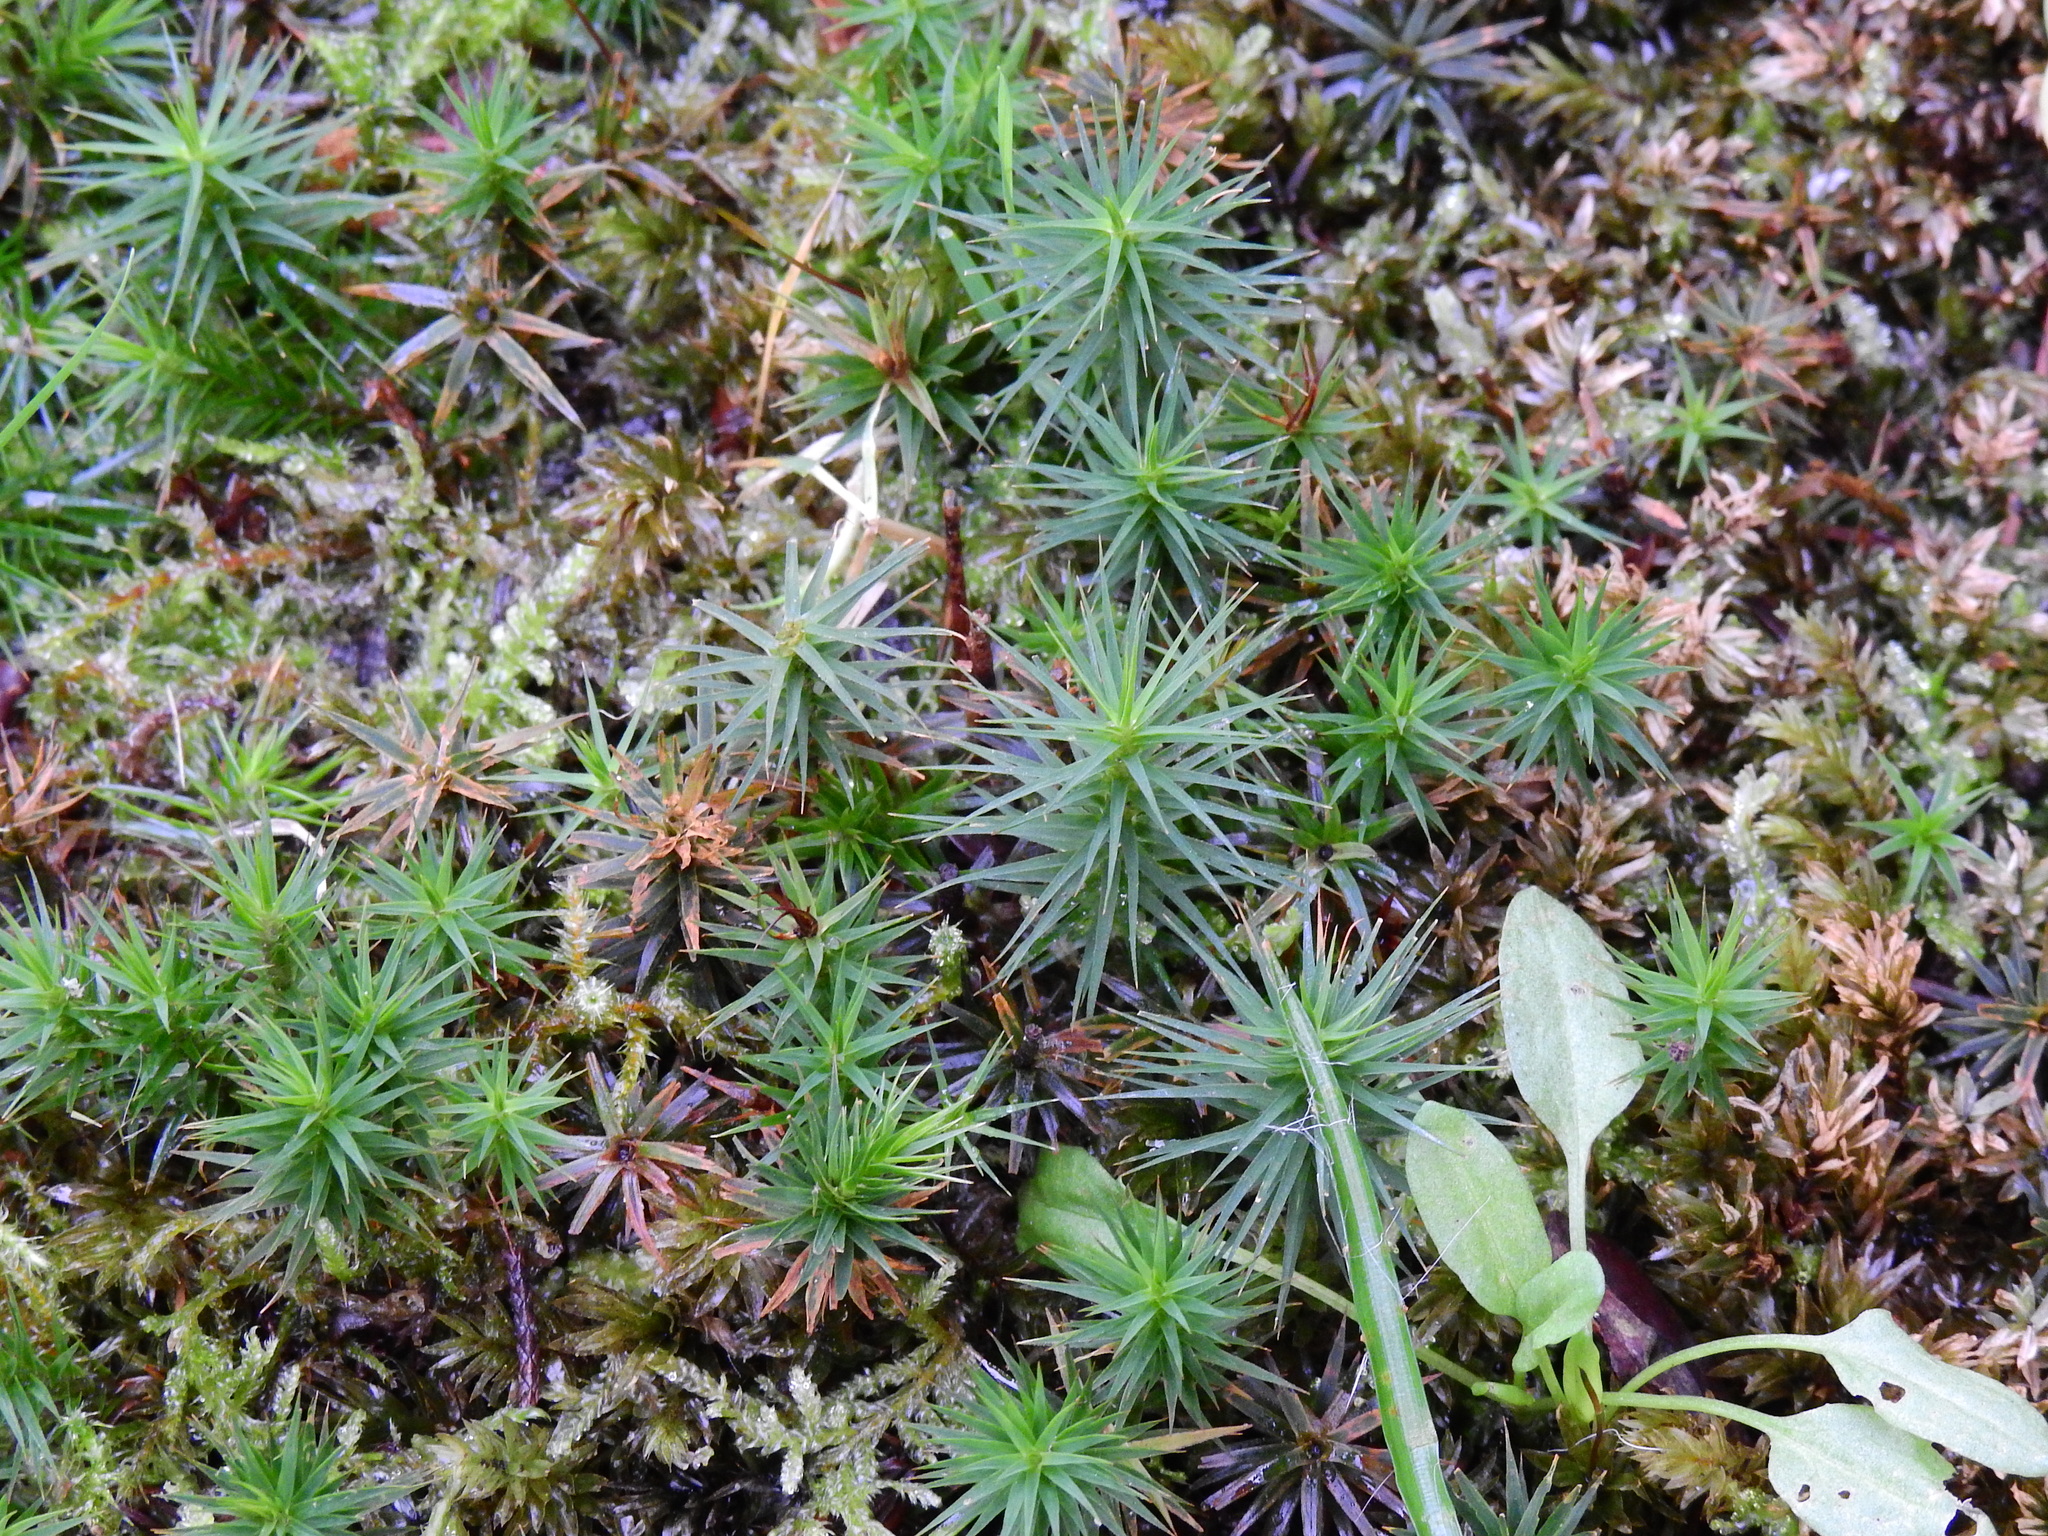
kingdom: Plantae
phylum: Bryophyta
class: Polytrichopsida
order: Polytrichales
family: Polytrichaceae
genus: Polytrichum
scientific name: Polytrichum formosum
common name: Bank haircap moss
